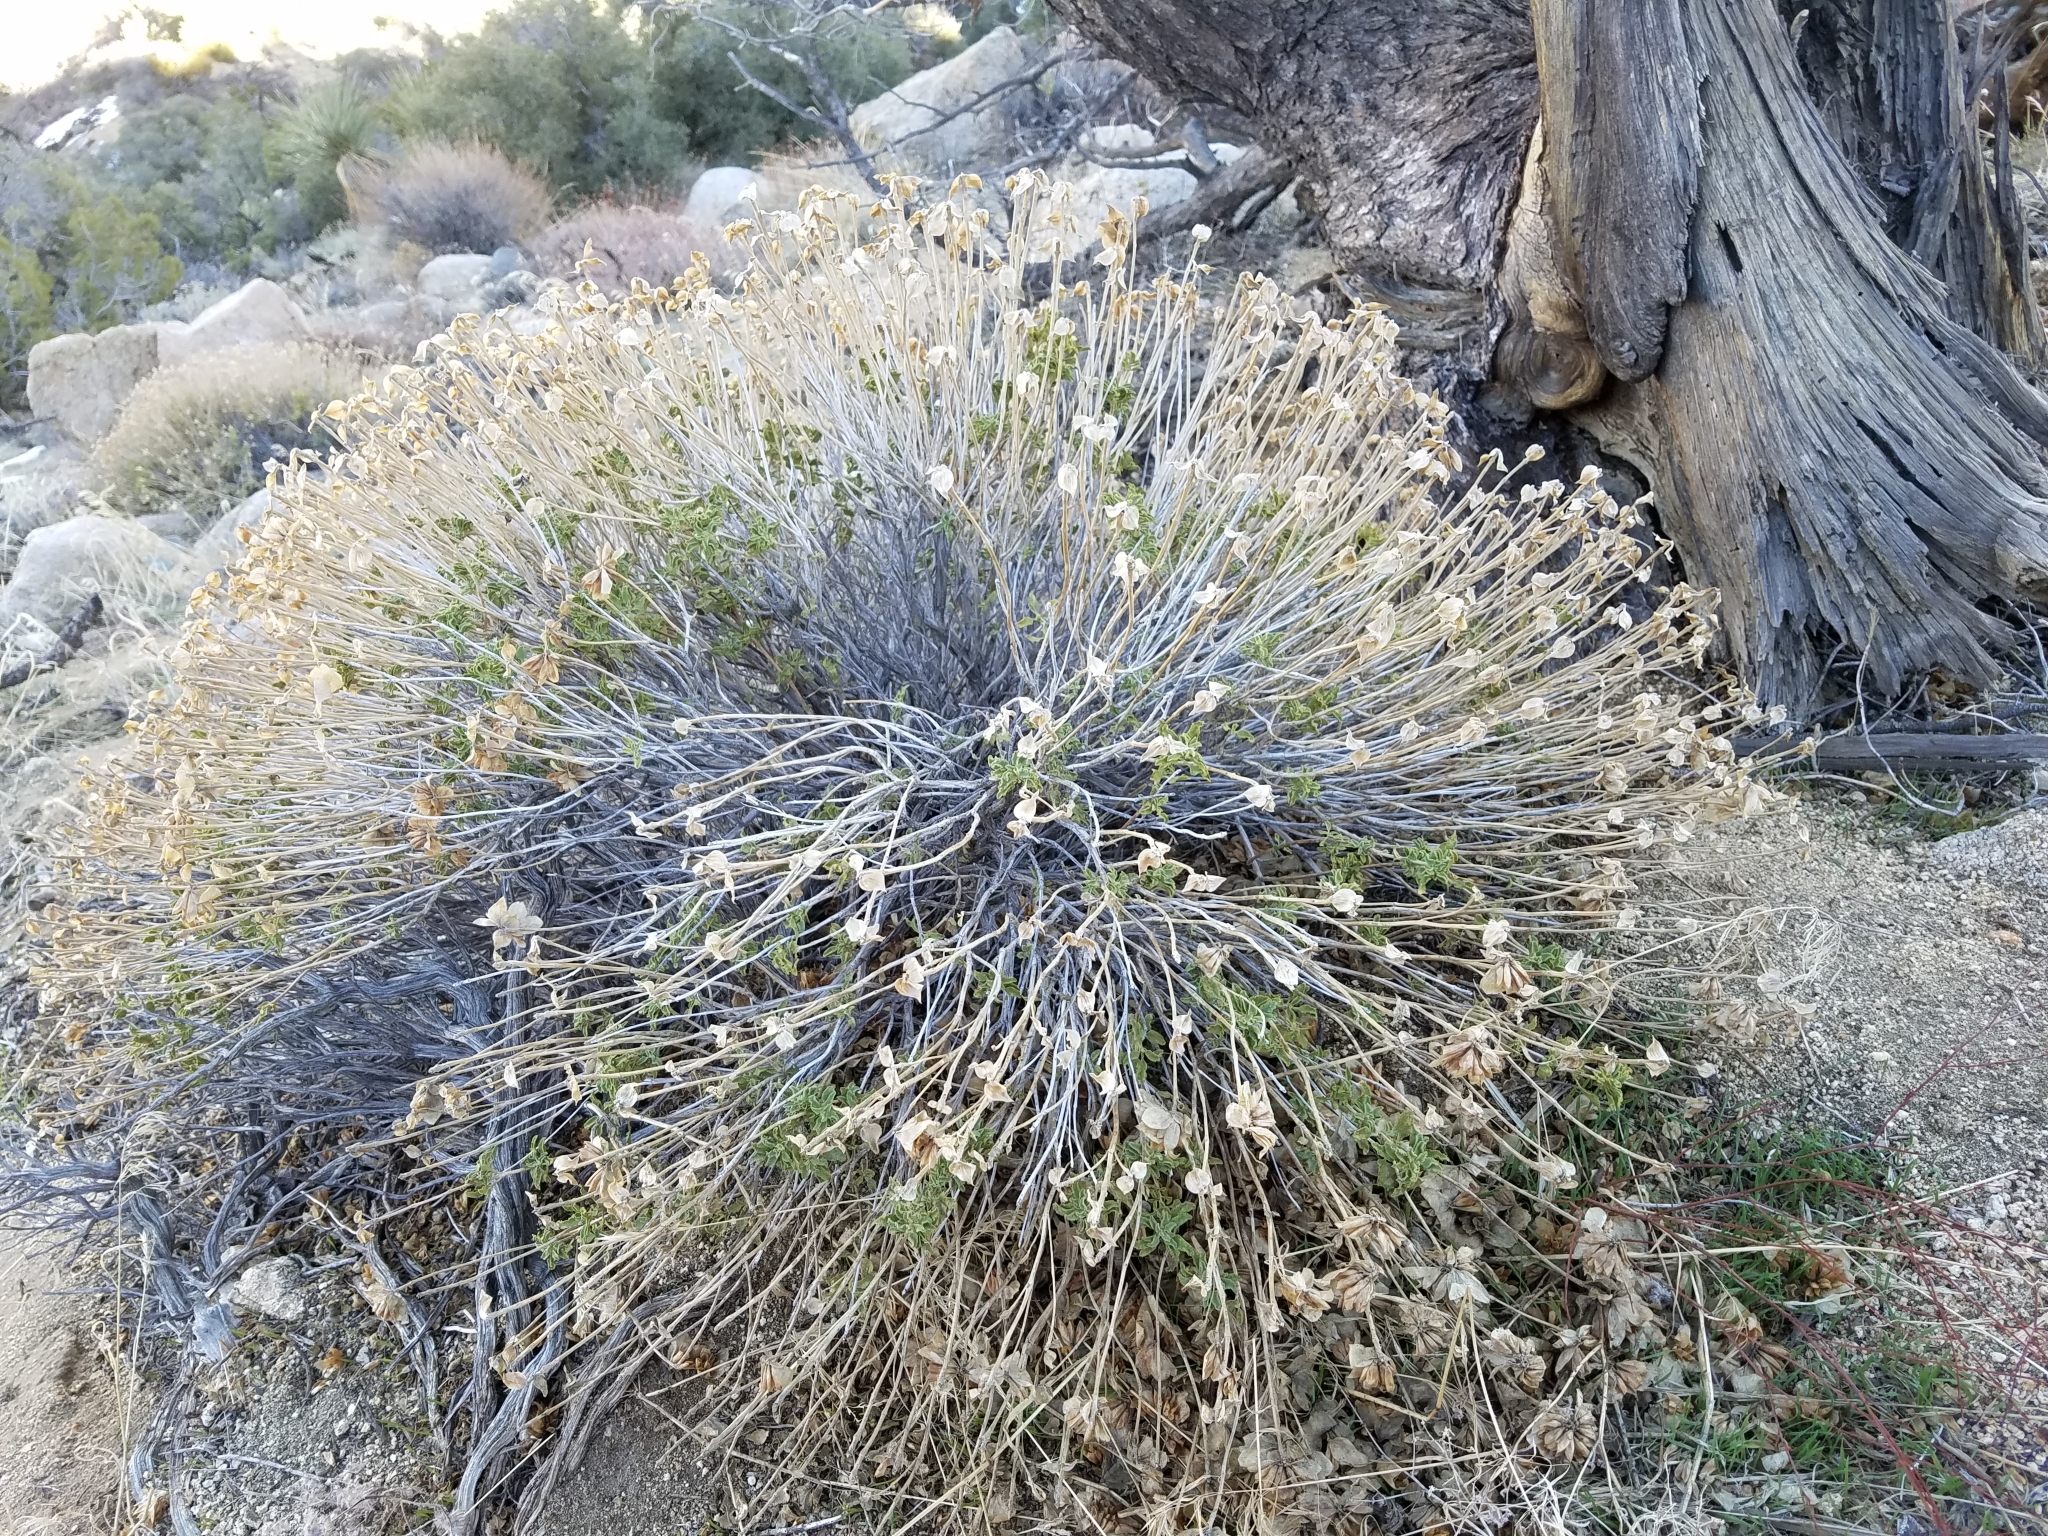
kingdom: Plantae
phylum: Tracheophyta
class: Magnoliopsida
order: Lamiales
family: Lamiaceae
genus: Salvia
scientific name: Salvia mohavensis
